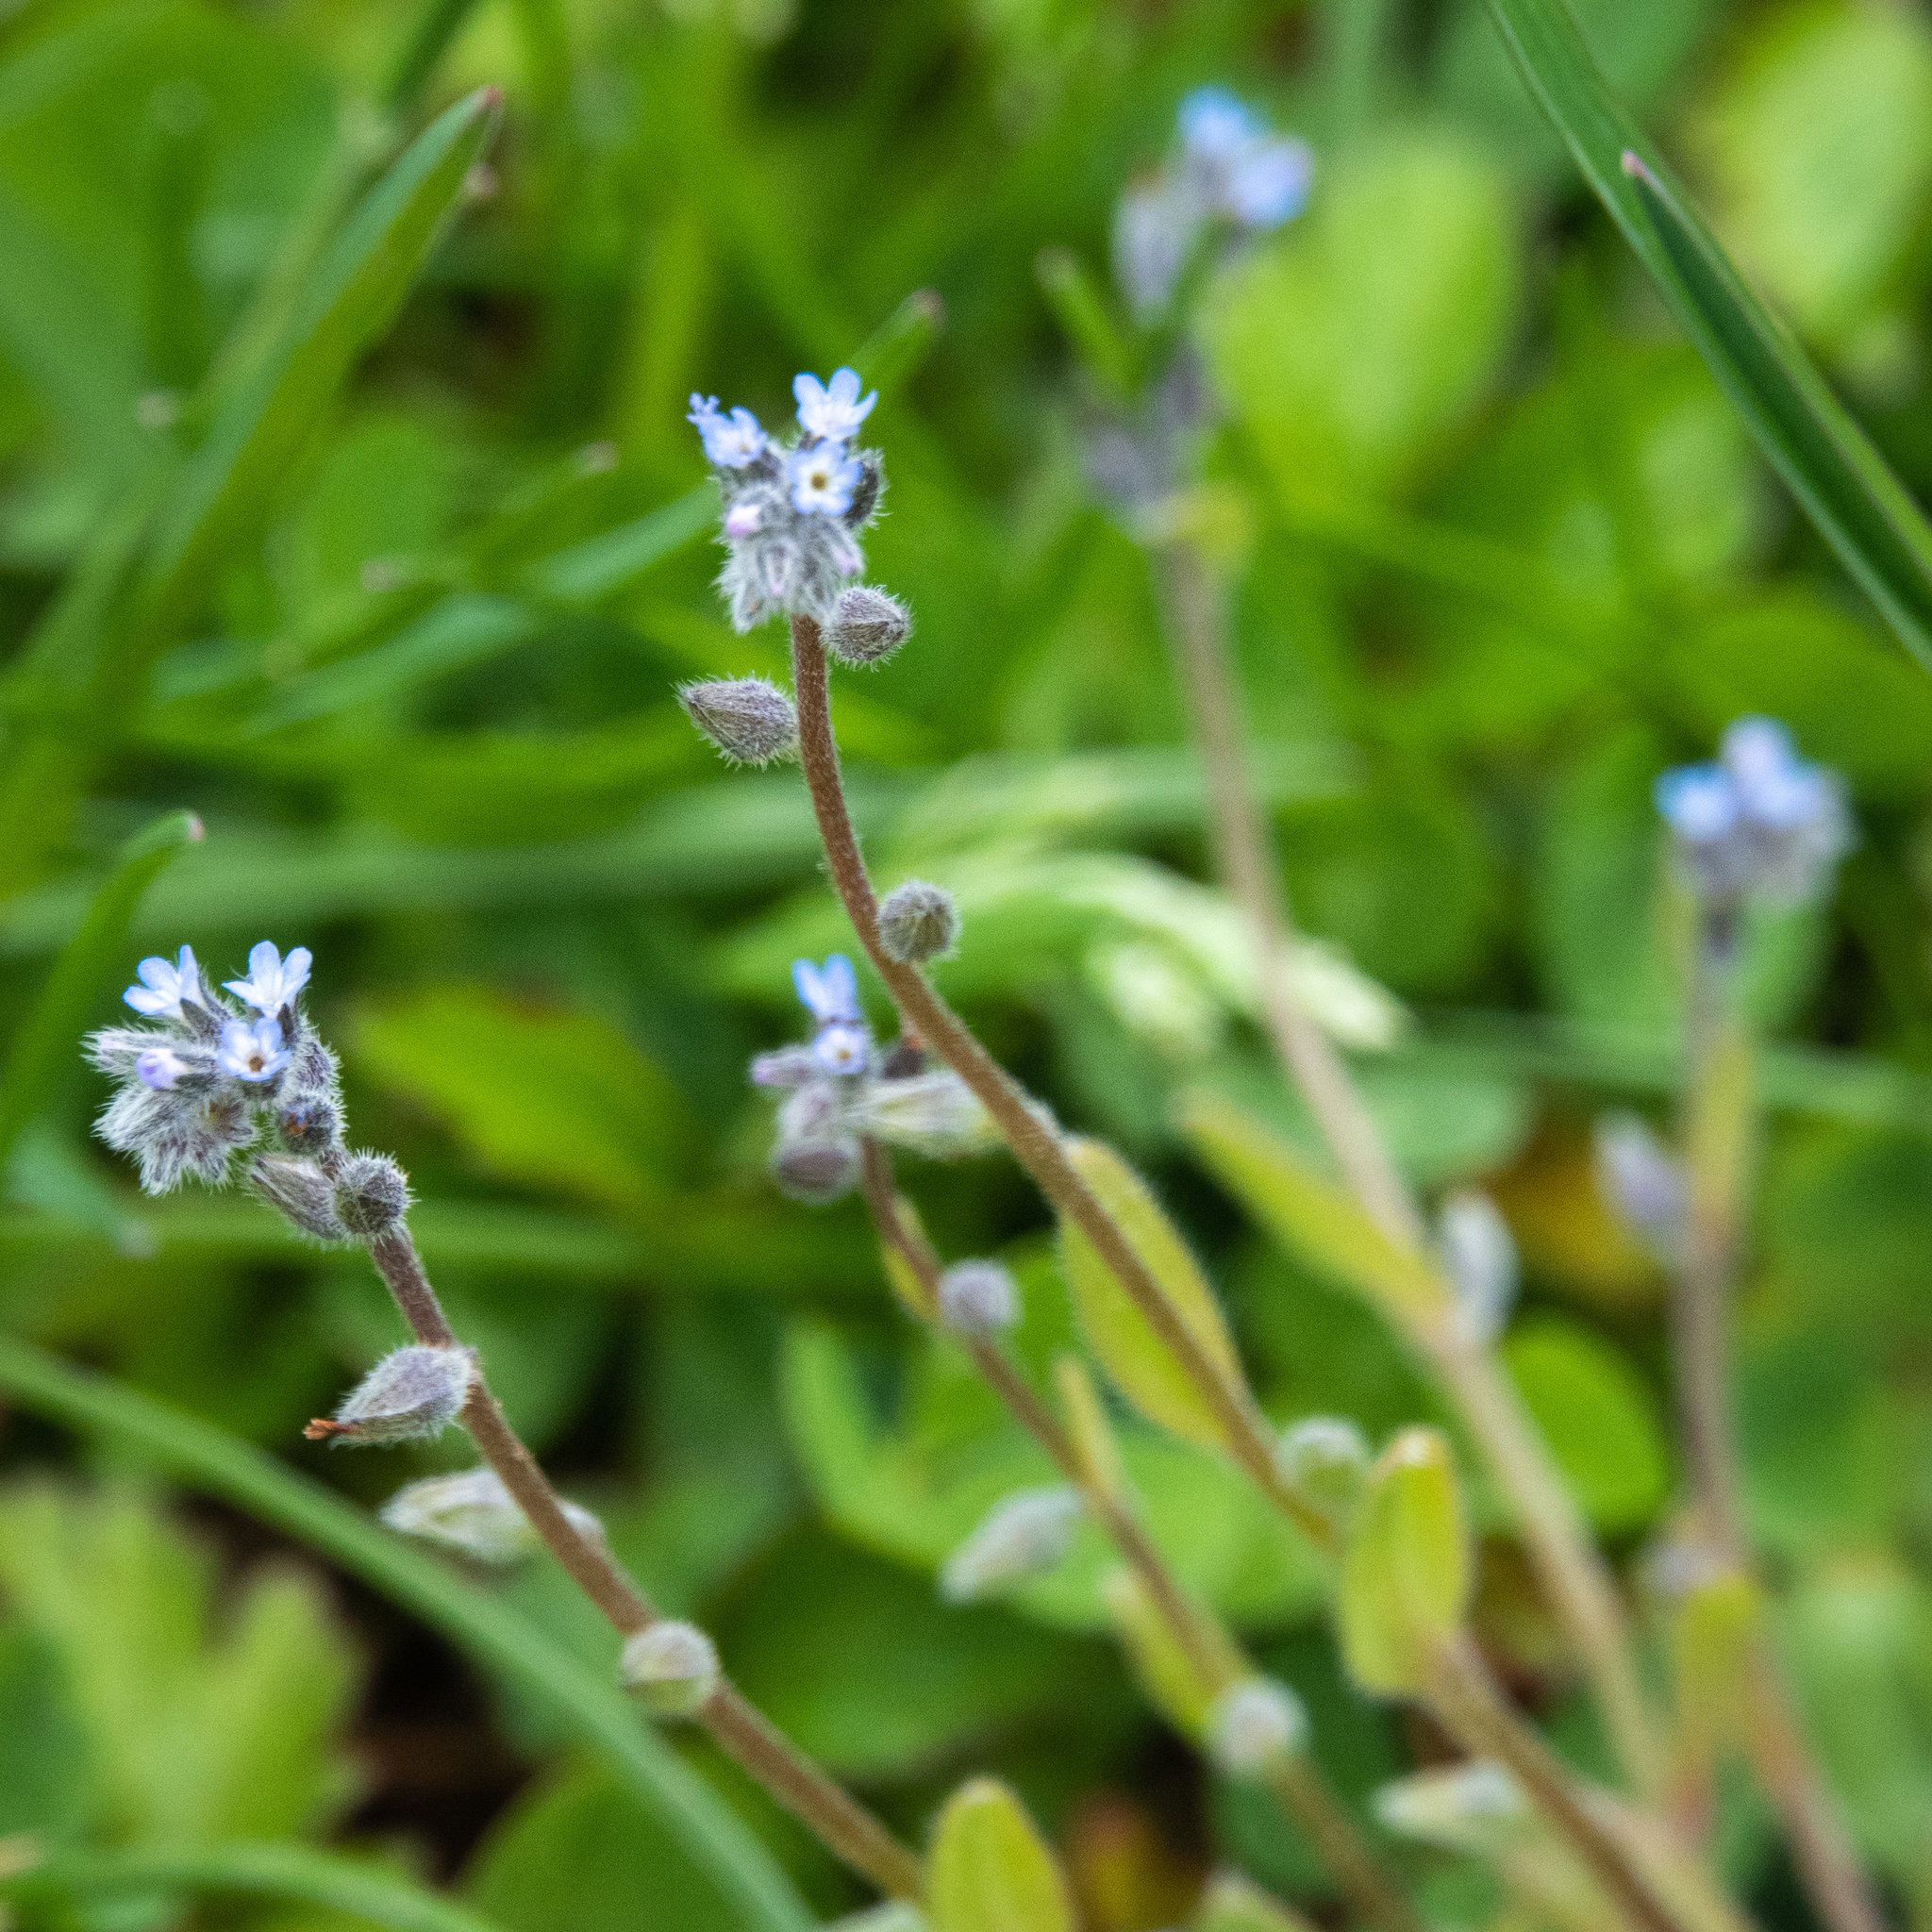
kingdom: Plantae
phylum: Tracheophyta
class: Magnoliopsida
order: Boraginales
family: Boraginaceae
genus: Myosotis
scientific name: Myosotis stricta
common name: Strict forget-me-not
